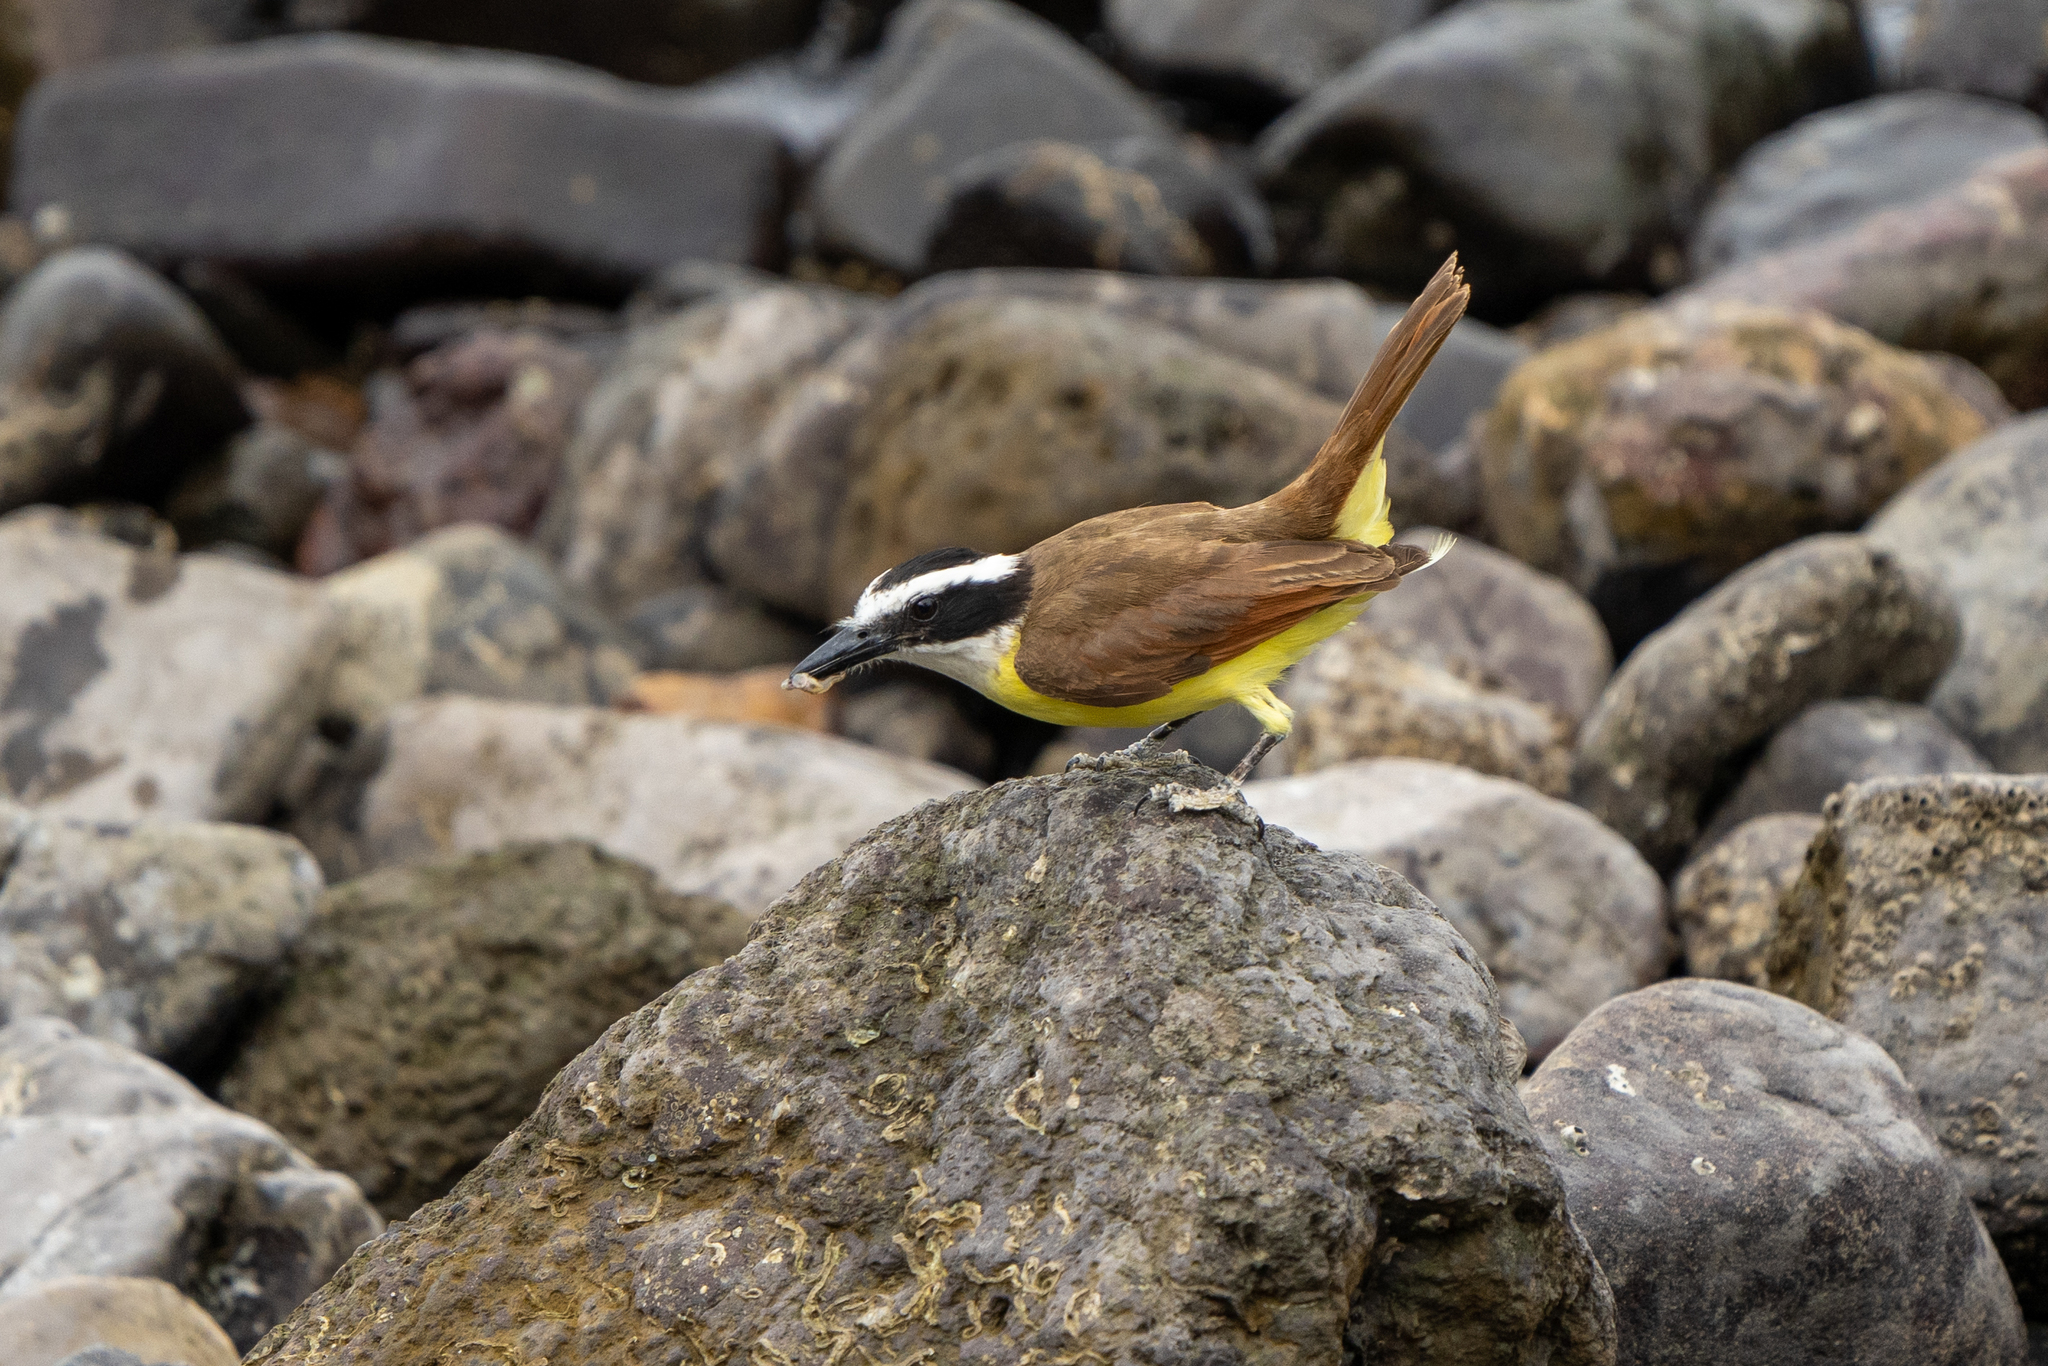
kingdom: Animalia
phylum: Chordata
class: Aves
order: Passeriformes
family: Tyrannidae
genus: Pitangus
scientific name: Pitangus sulphuratus
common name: Great kiskadee
